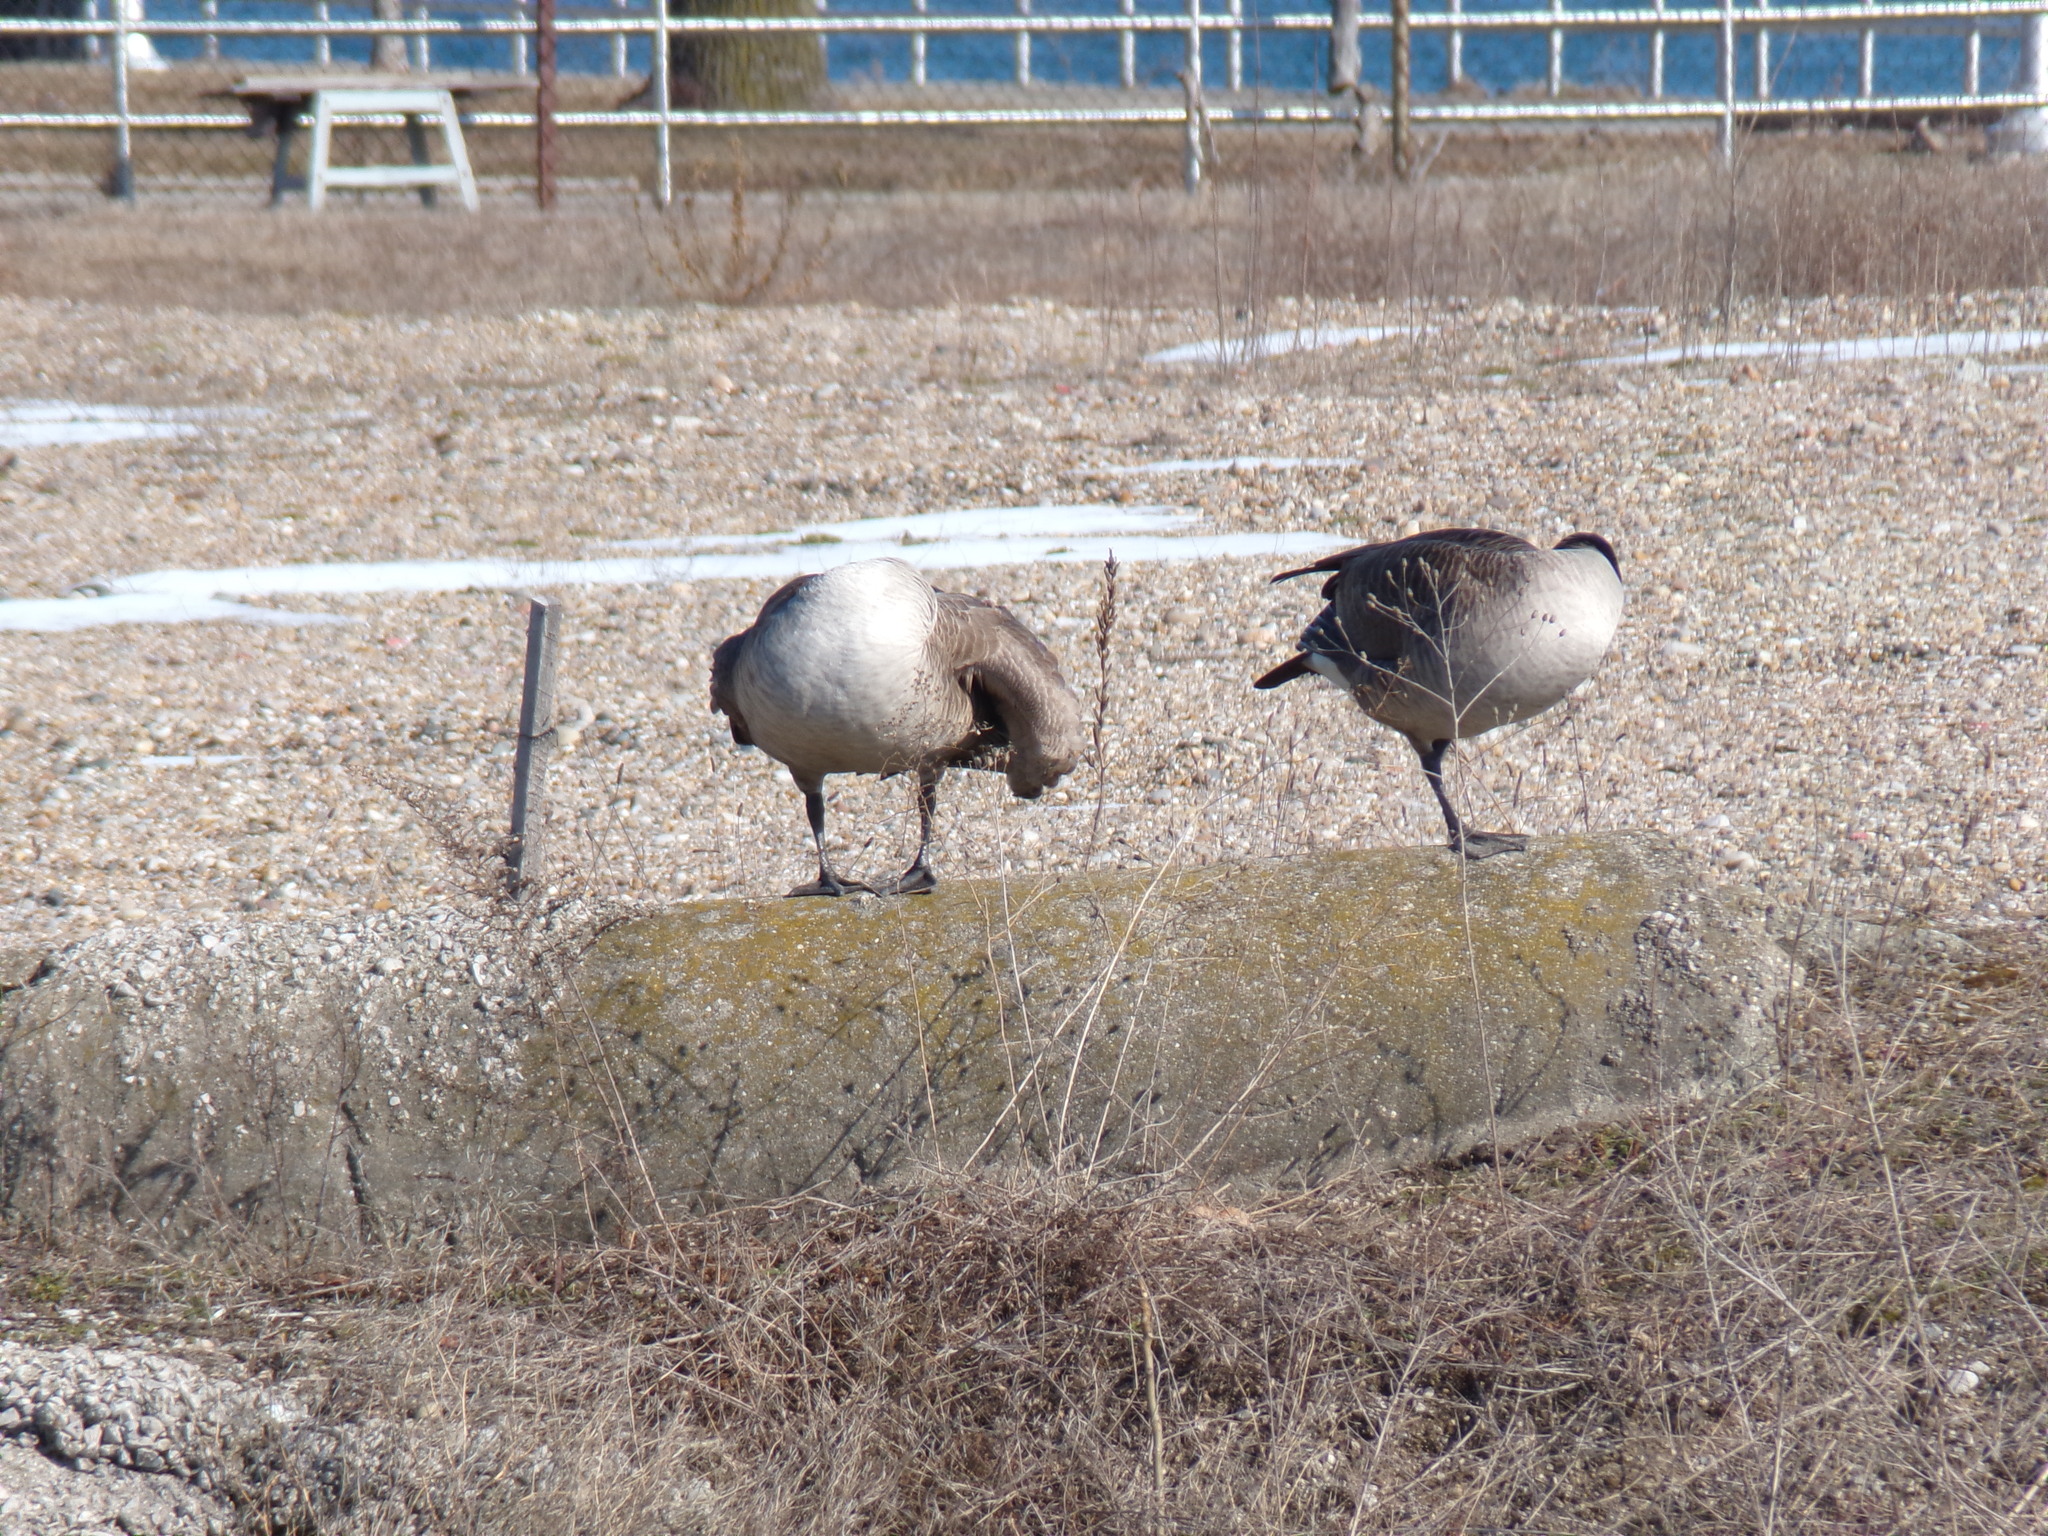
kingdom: Animalia
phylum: Chordata
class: Aves
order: Anseriformes
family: Anatidae
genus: Branta
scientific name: Branta canadensis
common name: Canada goose
